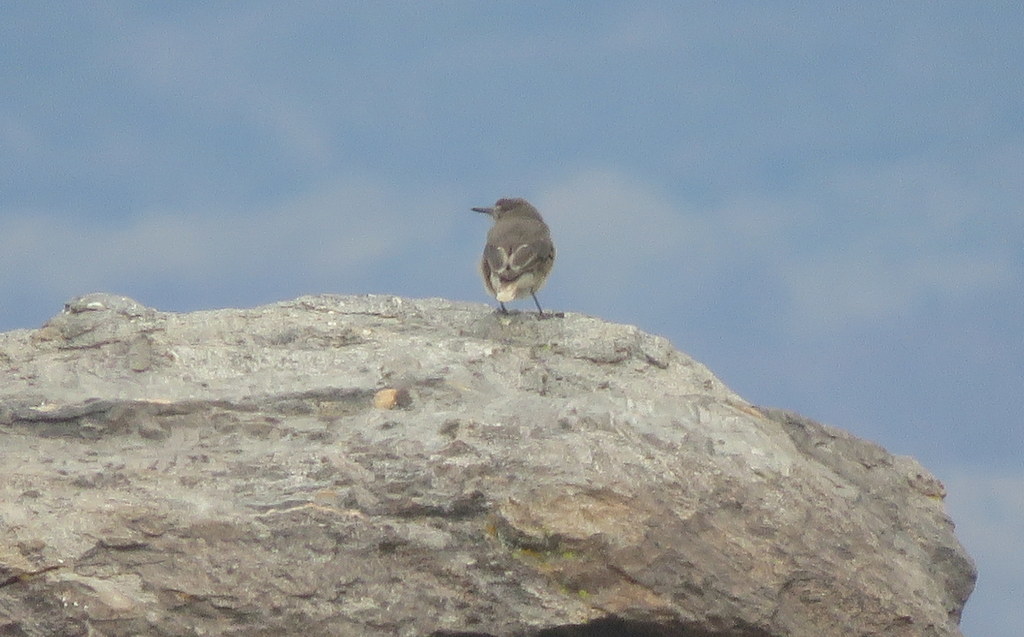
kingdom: Animalia
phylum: Chordata
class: Aves
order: Passeriformes
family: Tyrannidae
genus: Agriornis
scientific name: Agriornis montanus
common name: Black-billed shrike-tyrant
